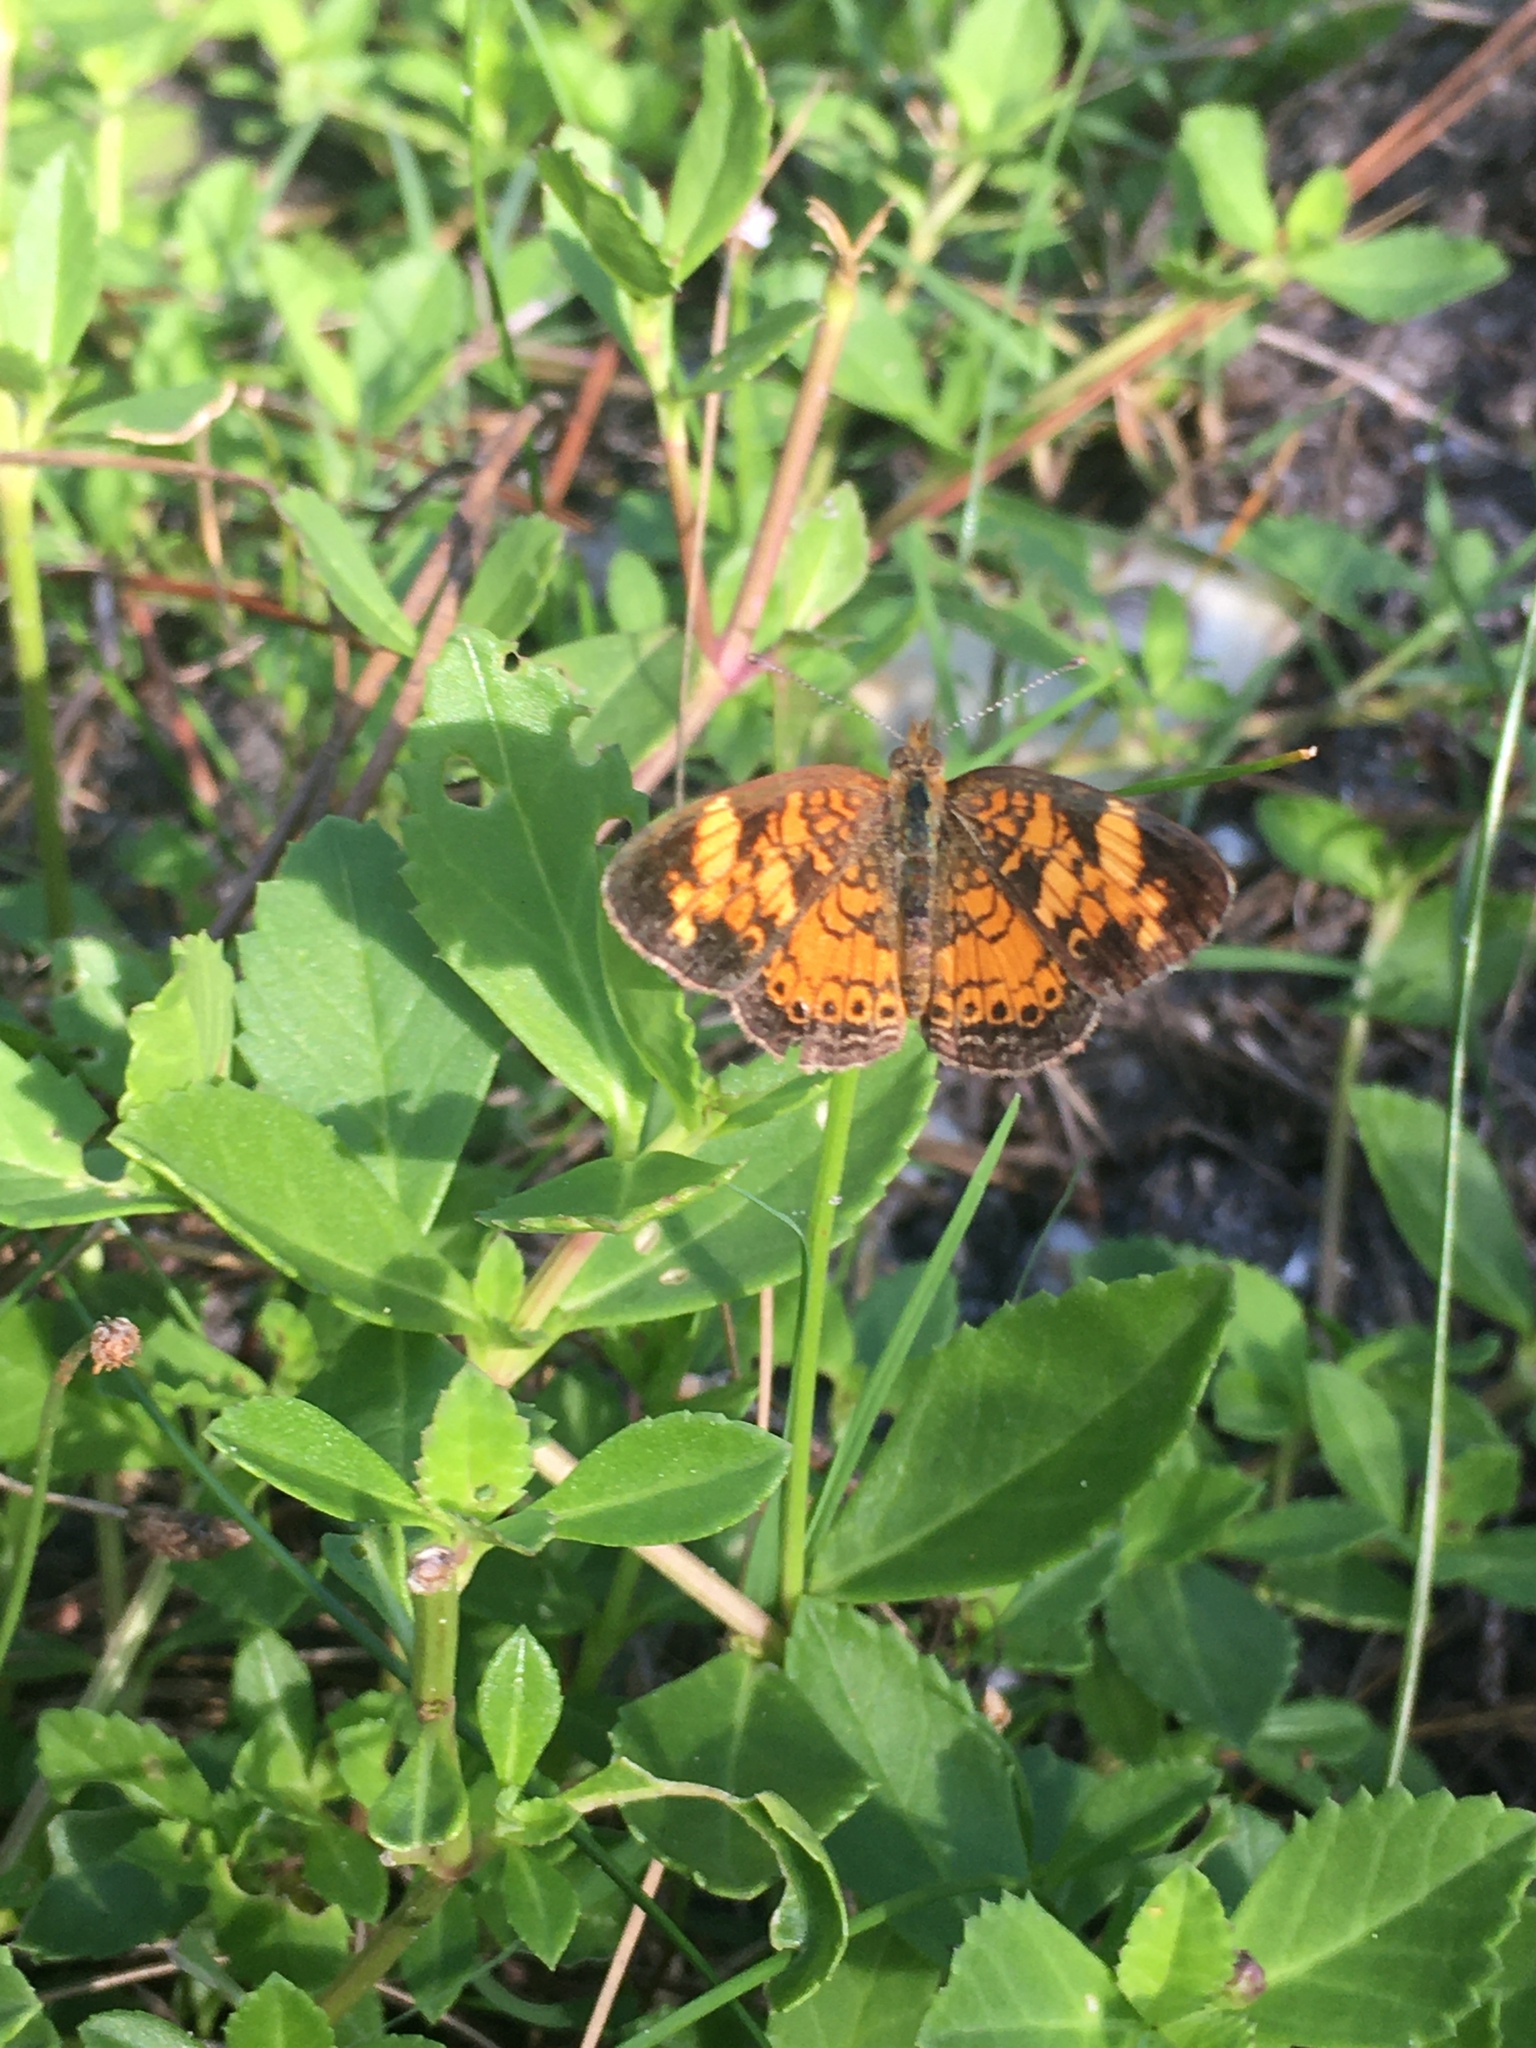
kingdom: Animalia
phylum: Arthropoda
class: Insecta
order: Lepidoptera
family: Nymphalidae
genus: Phyciodes
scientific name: Phyciodes tharos
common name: Pearl crescent
